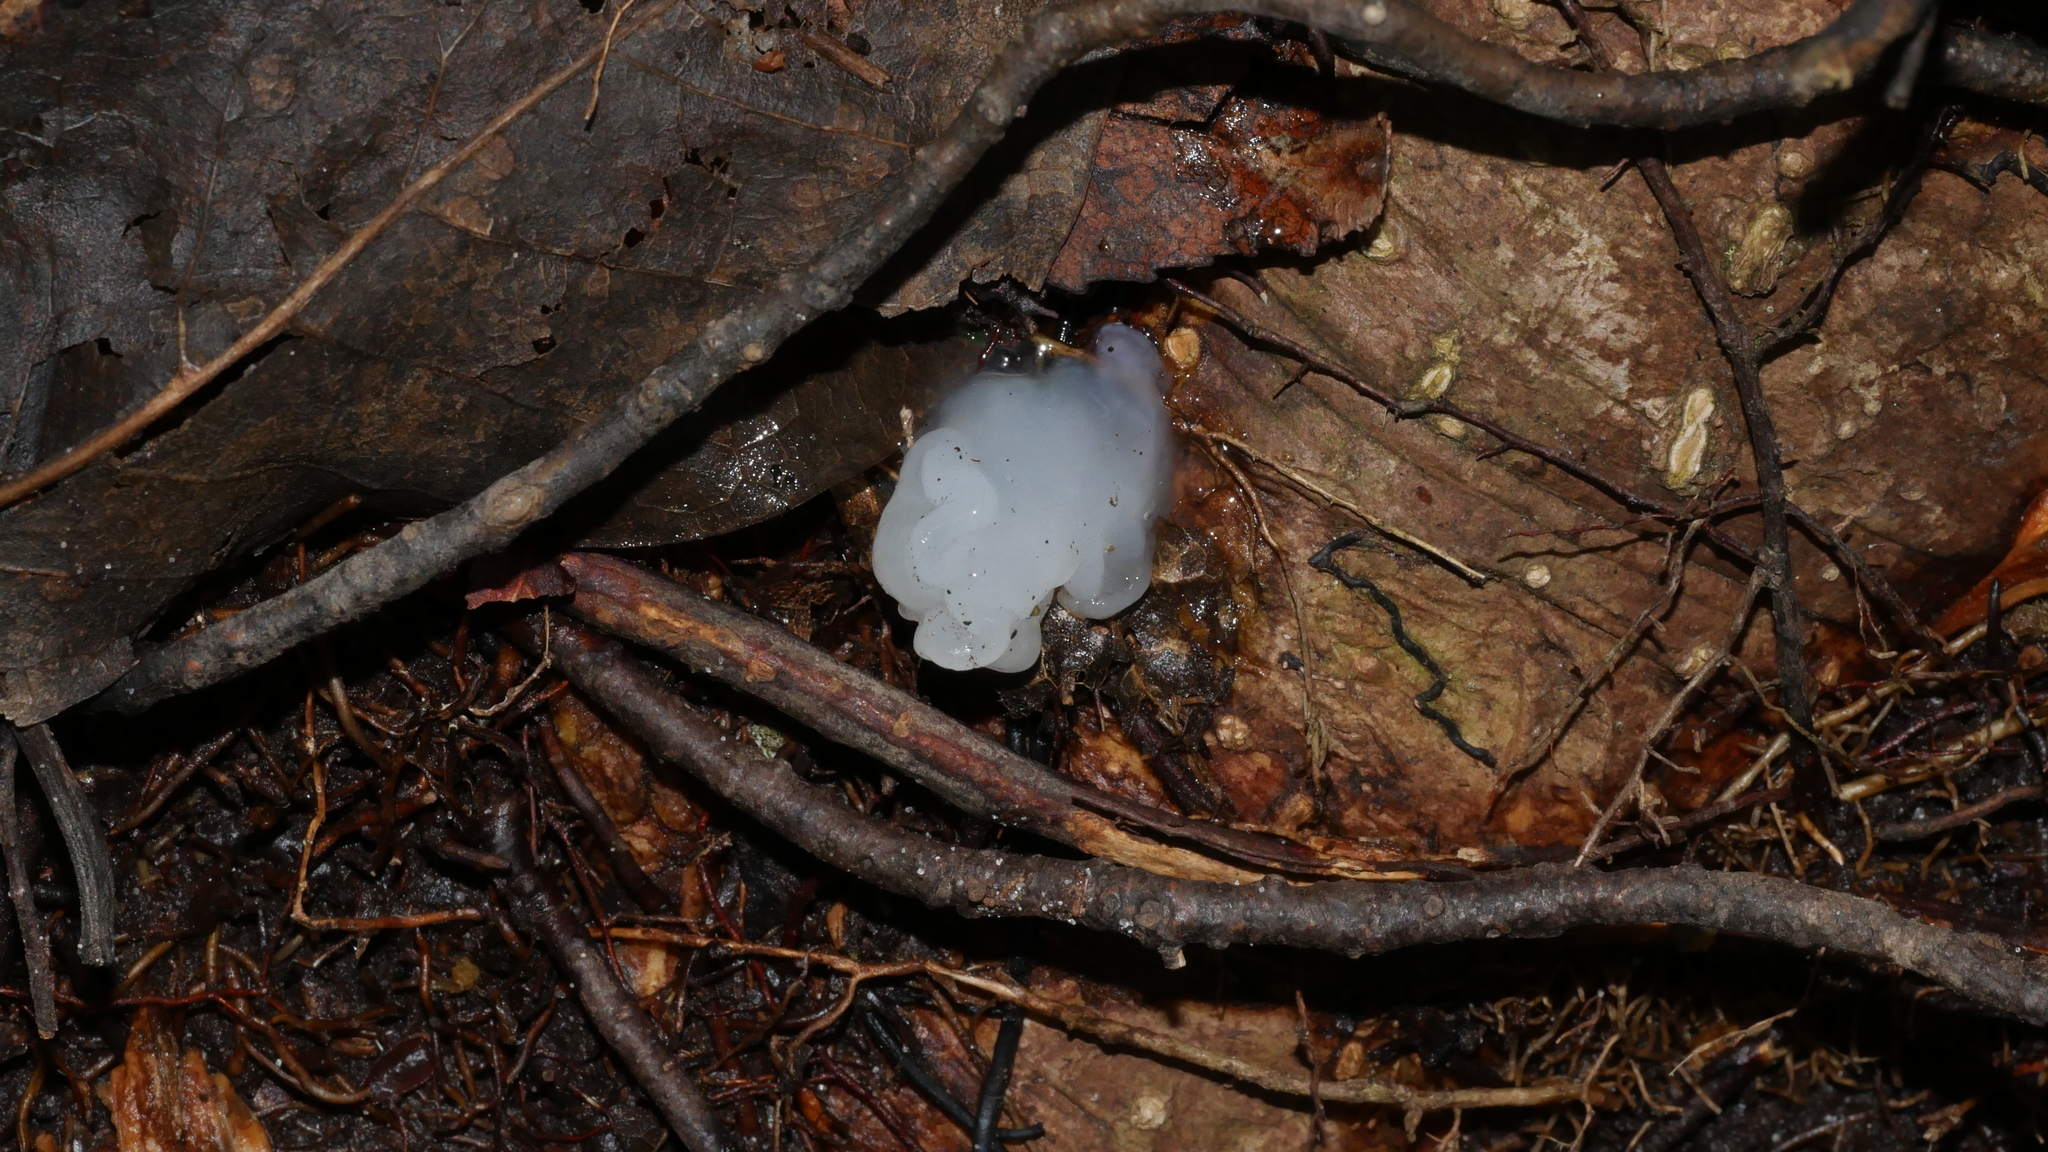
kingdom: Fungi
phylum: Basidiomycota
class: Agaricomycetes
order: Polyporales
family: Irpicaceae
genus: Irpex
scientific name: Irpex lacteus
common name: Milk-white toothed polypore
